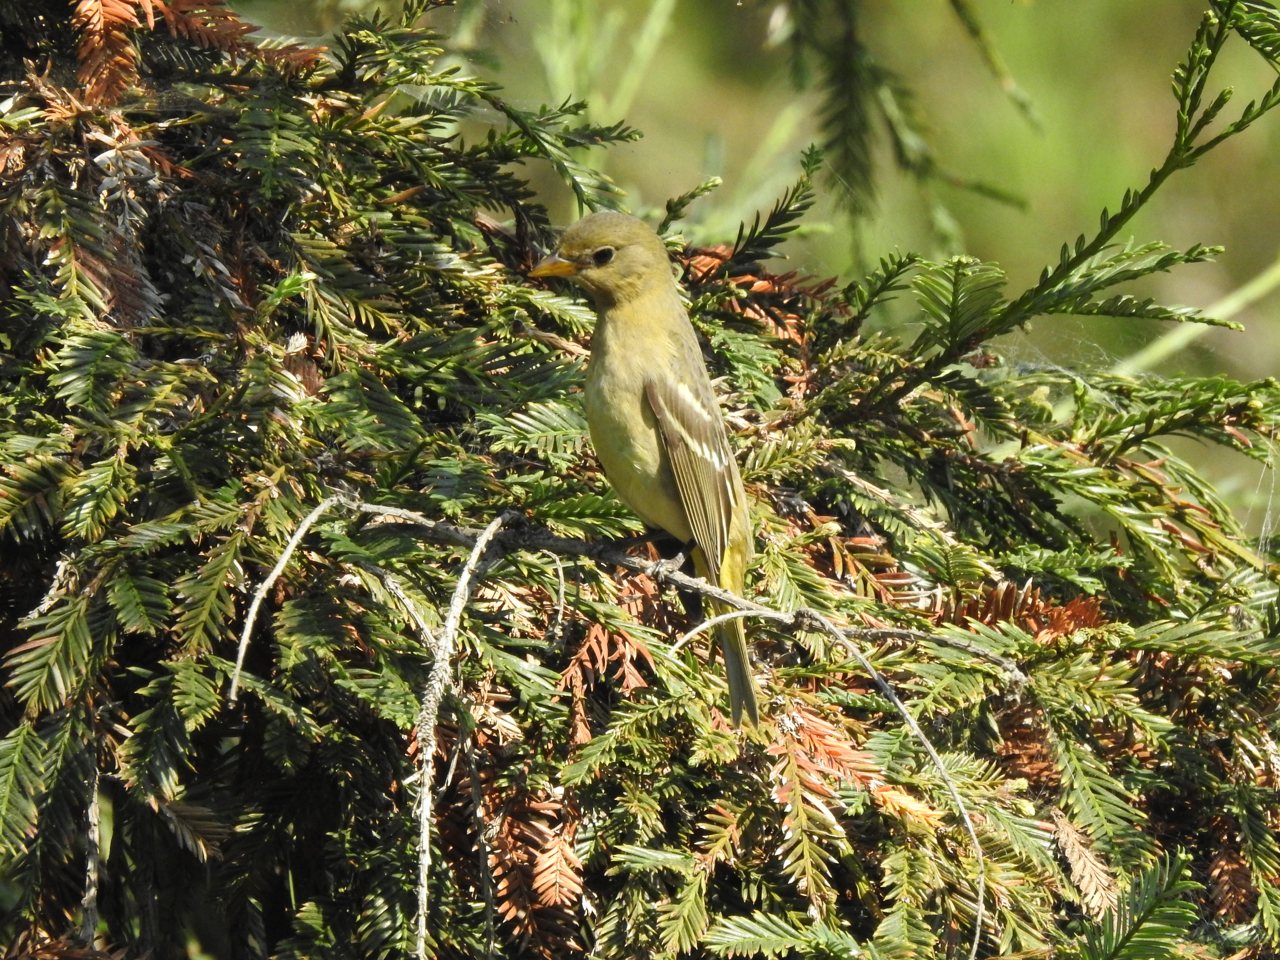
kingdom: Animalia
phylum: Chordata
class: Aves
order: Passeriformes
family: Cardinalidae
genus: Piranga
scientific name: Piranga ludoviciana
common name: Western tanager
